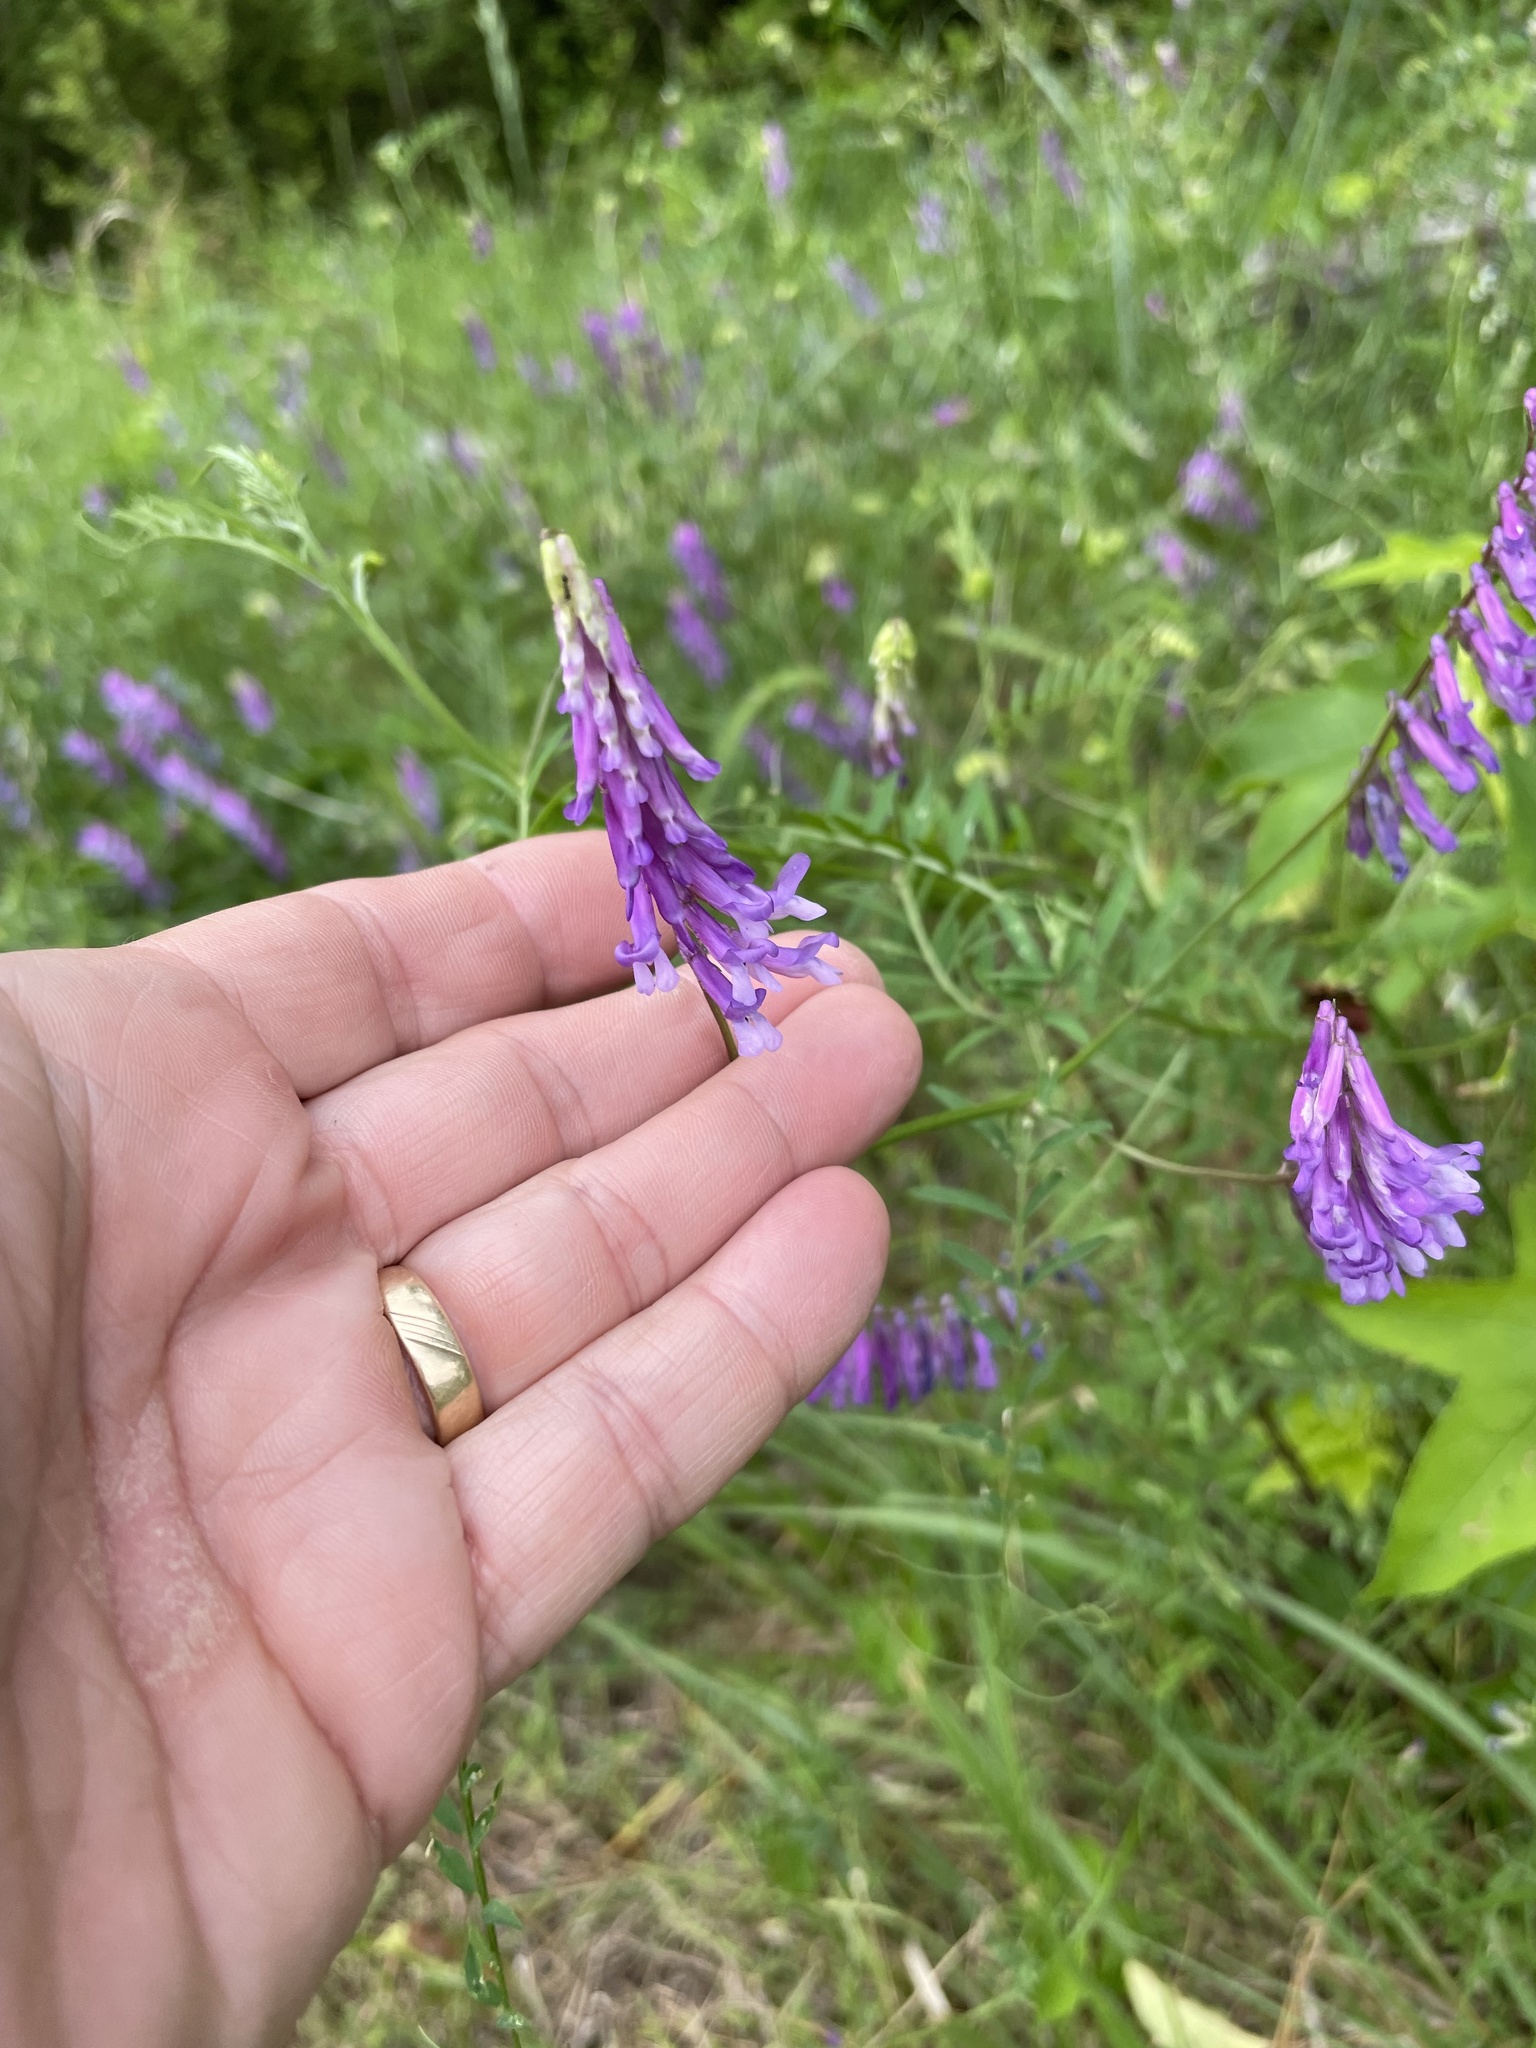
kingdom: Plantae
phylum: Tracheophyta
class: Magnoliopsida
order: Fabales
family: Fabaceae
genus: Vicia
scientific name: Vicia villosa
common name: Fodder vetch
